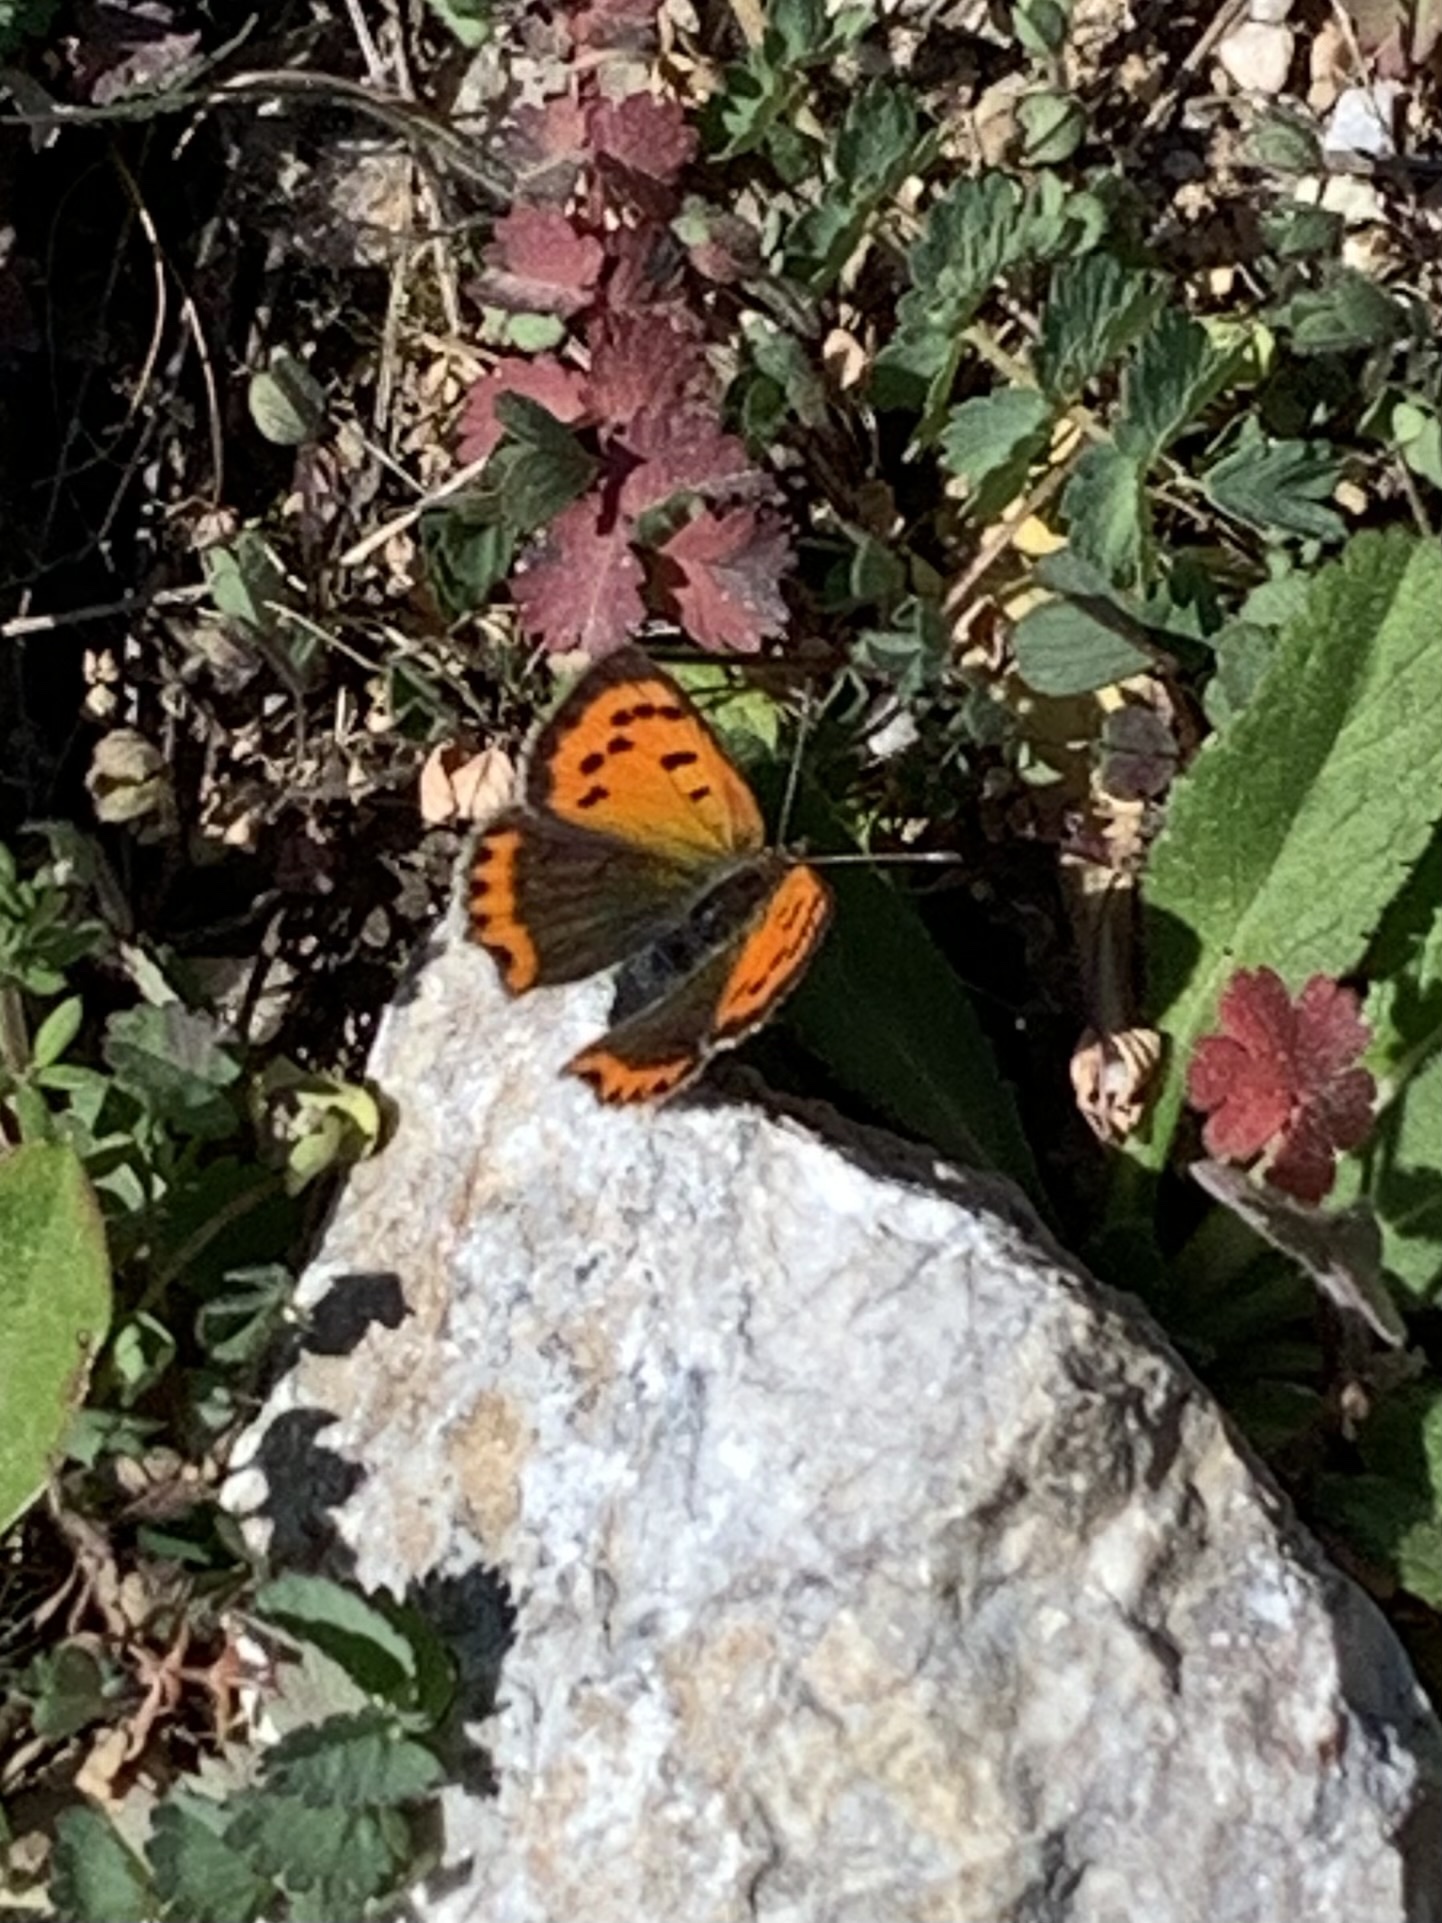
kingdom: Animalia
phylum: Arthropoda
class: Insecta
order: Lepidoptera
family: Lycaenidae
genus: Lycaena
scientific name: Lycaena phlaeas
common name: Small copper
